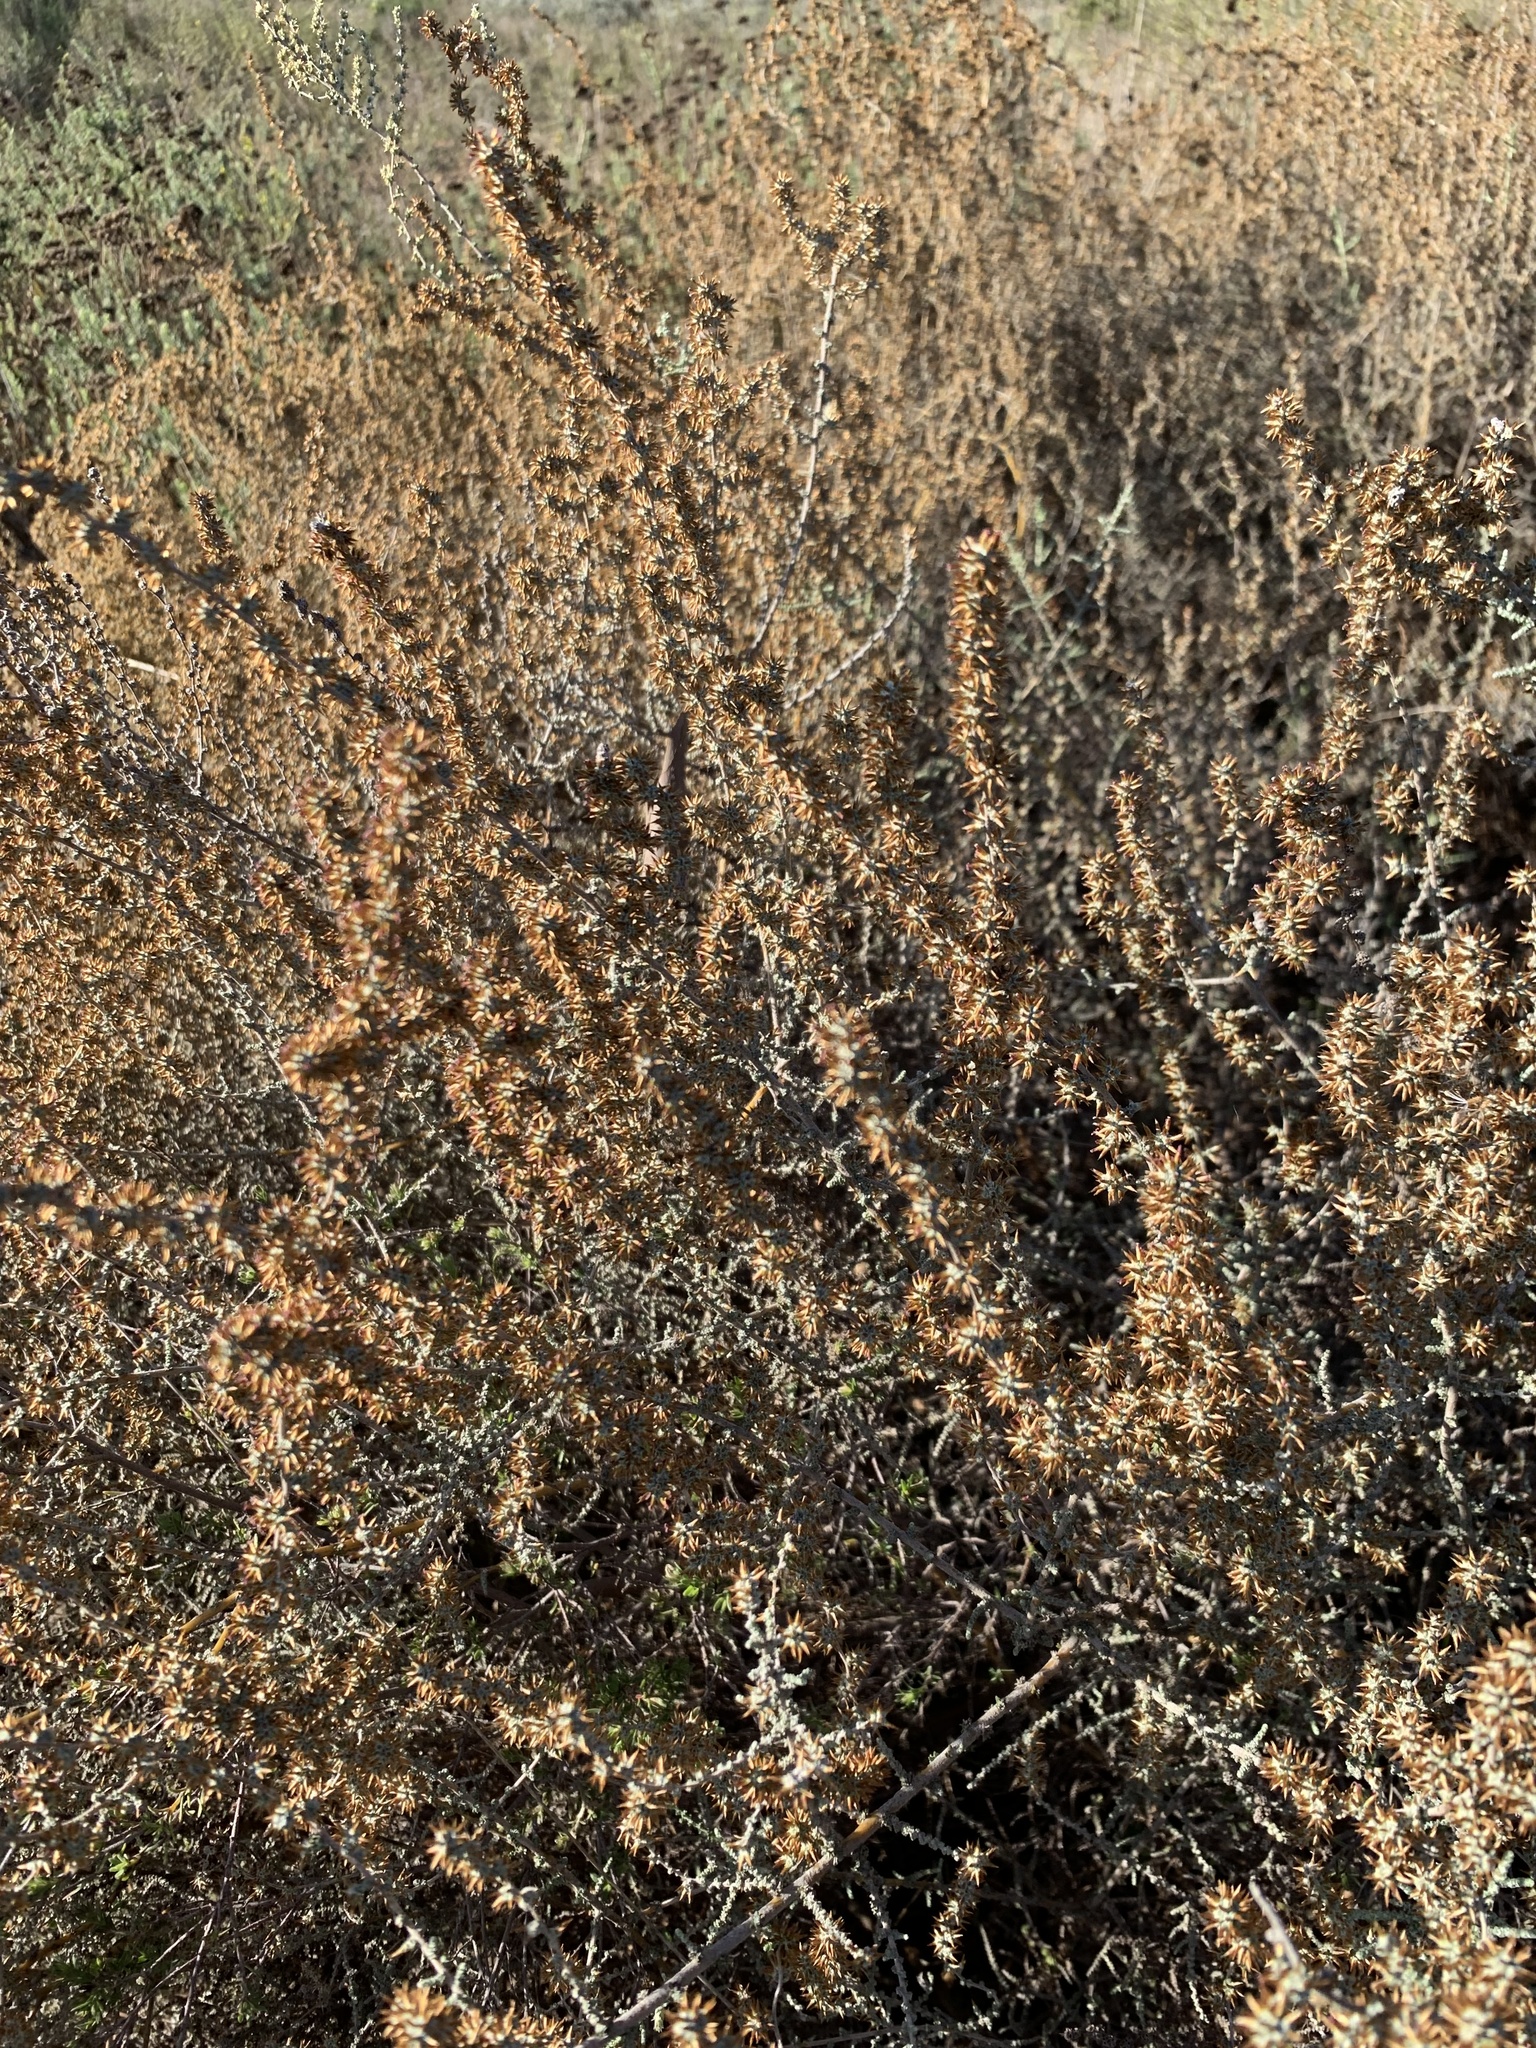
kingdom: Plantae
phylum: Tracheophyta
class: Magnoliopsida
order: Asterales
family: Asteraceae
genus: Seriphium
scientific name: Seriphium plumosum
